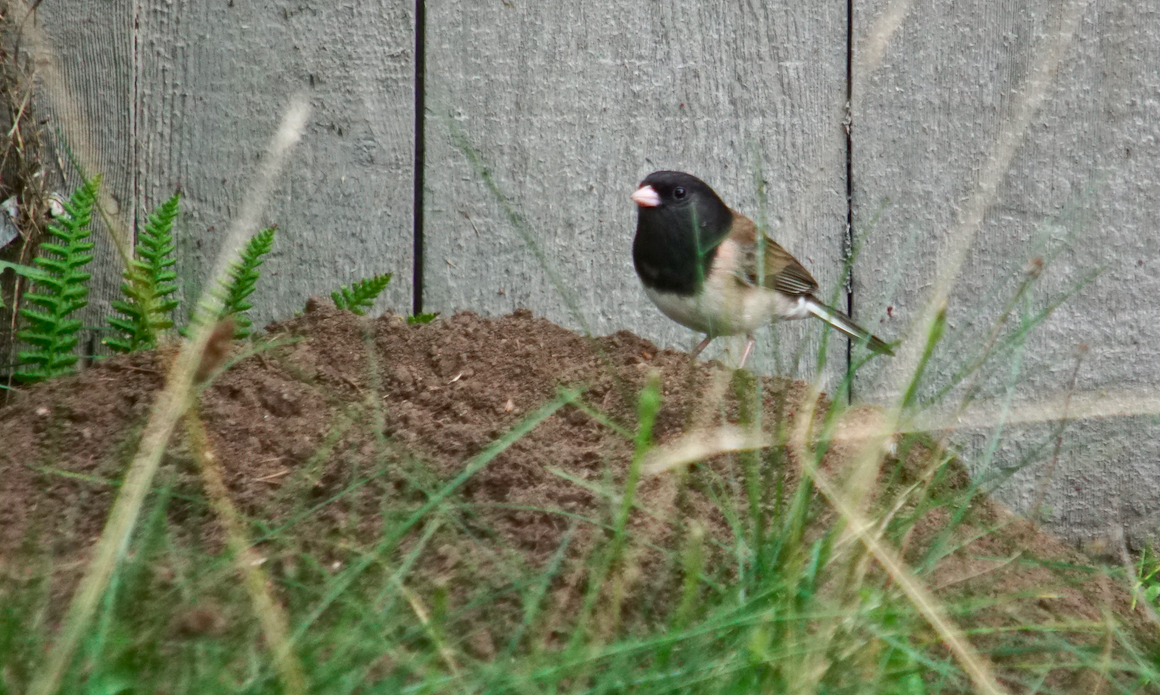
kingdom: Animalia
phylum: Chordata
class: Aves
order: Passeriformes
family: Passerellidae
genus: Junco
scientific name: Junco hyemalis
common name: Dark-eyed junco
